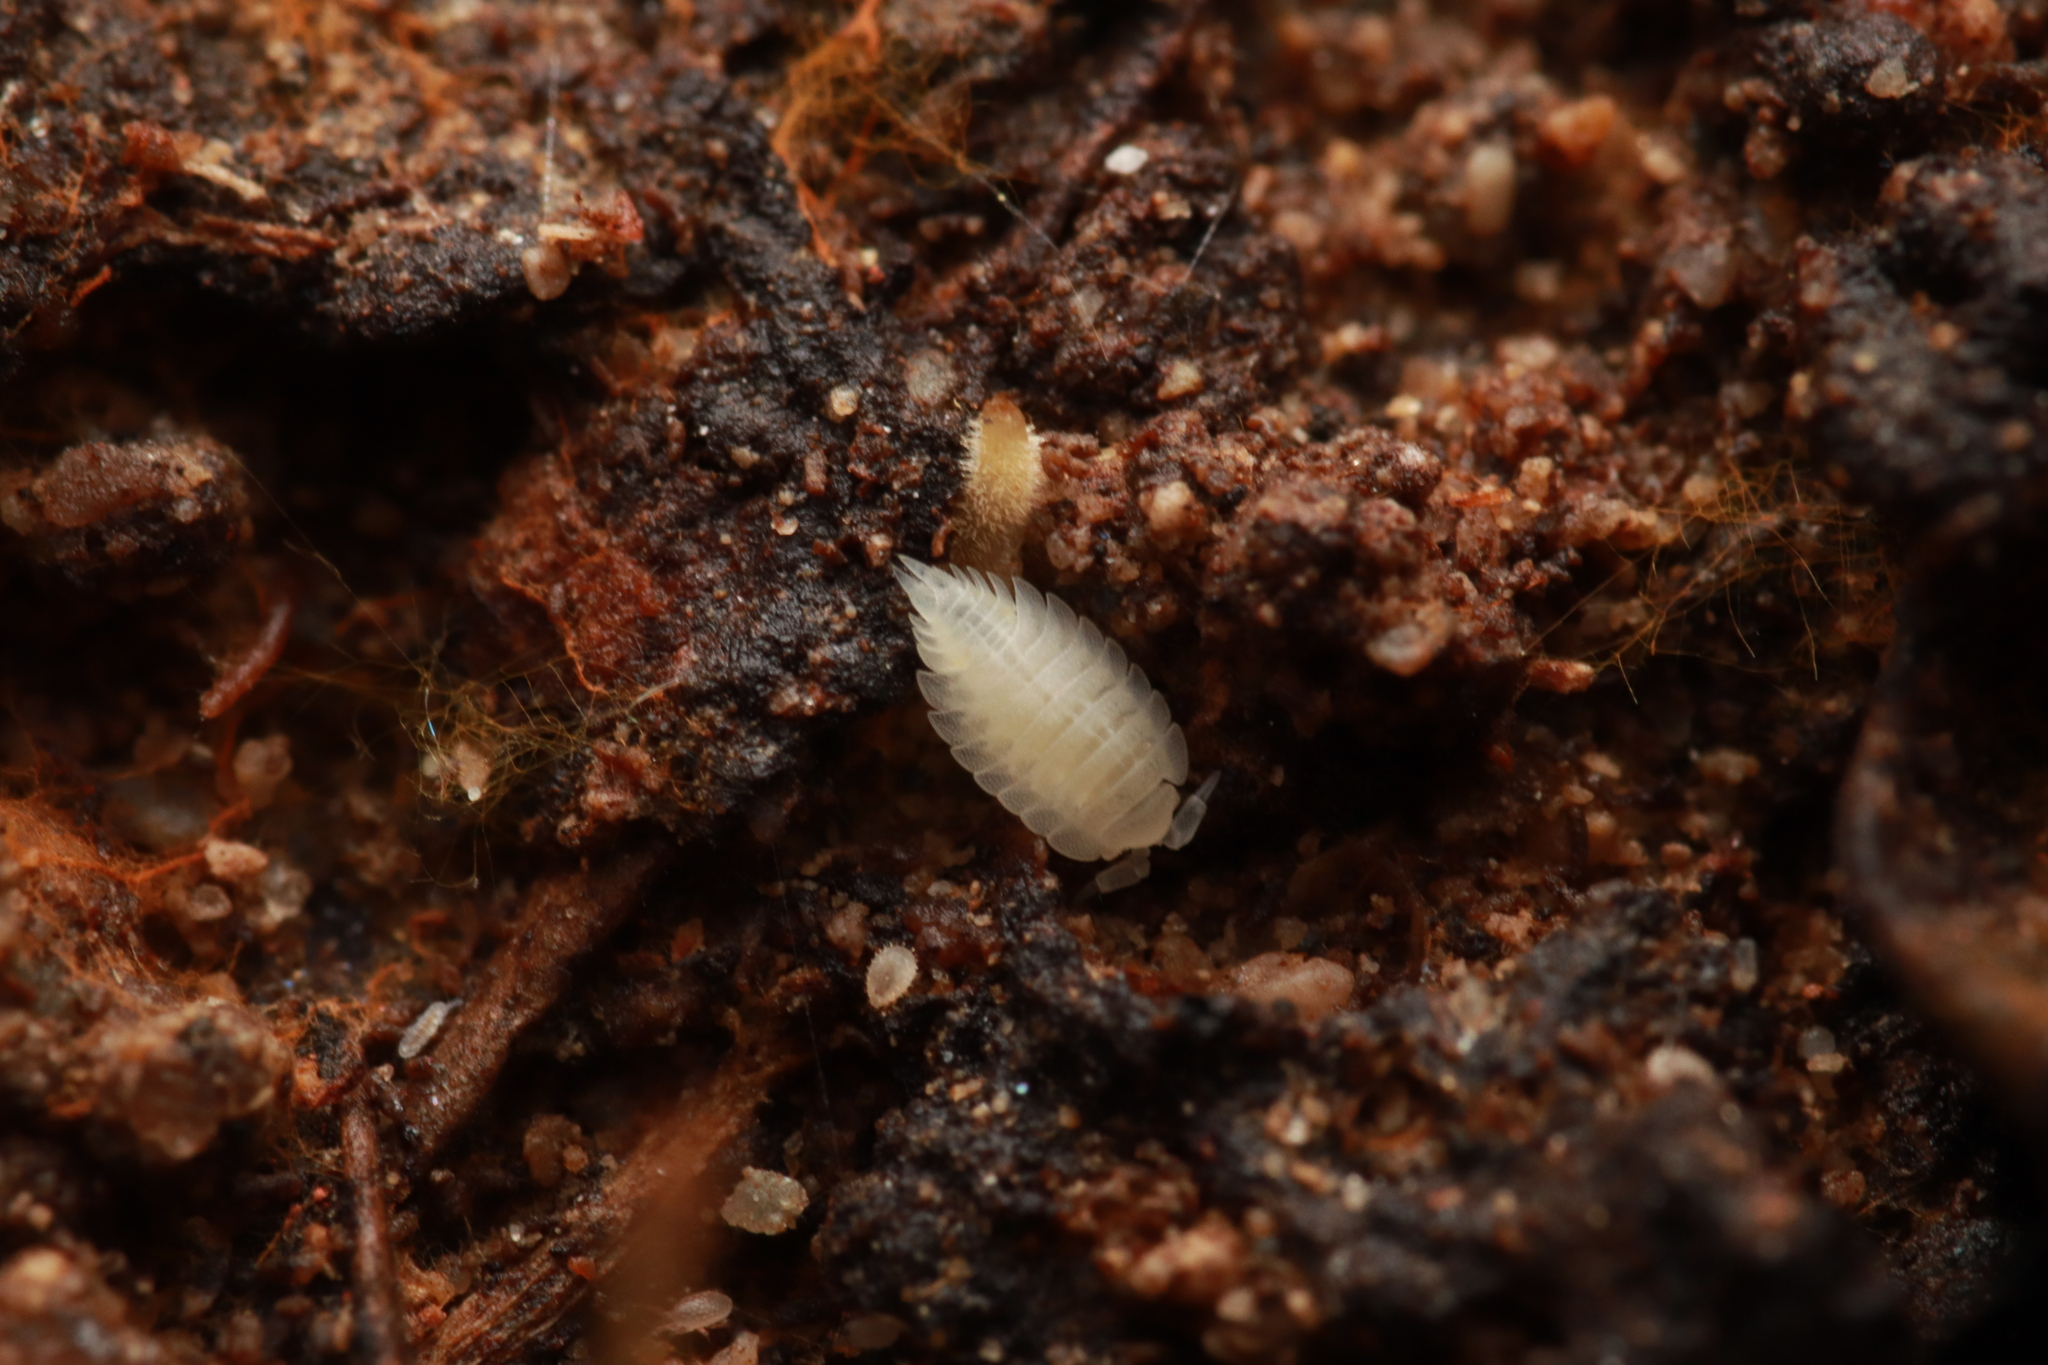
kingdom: Animalia
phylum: Arthropoda
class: Malacostraca
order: Isopoda
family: Platyarthridae
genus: Platyarthrus
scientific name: Platyarthrus hoffmannseggii
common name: Ant woodlouse
